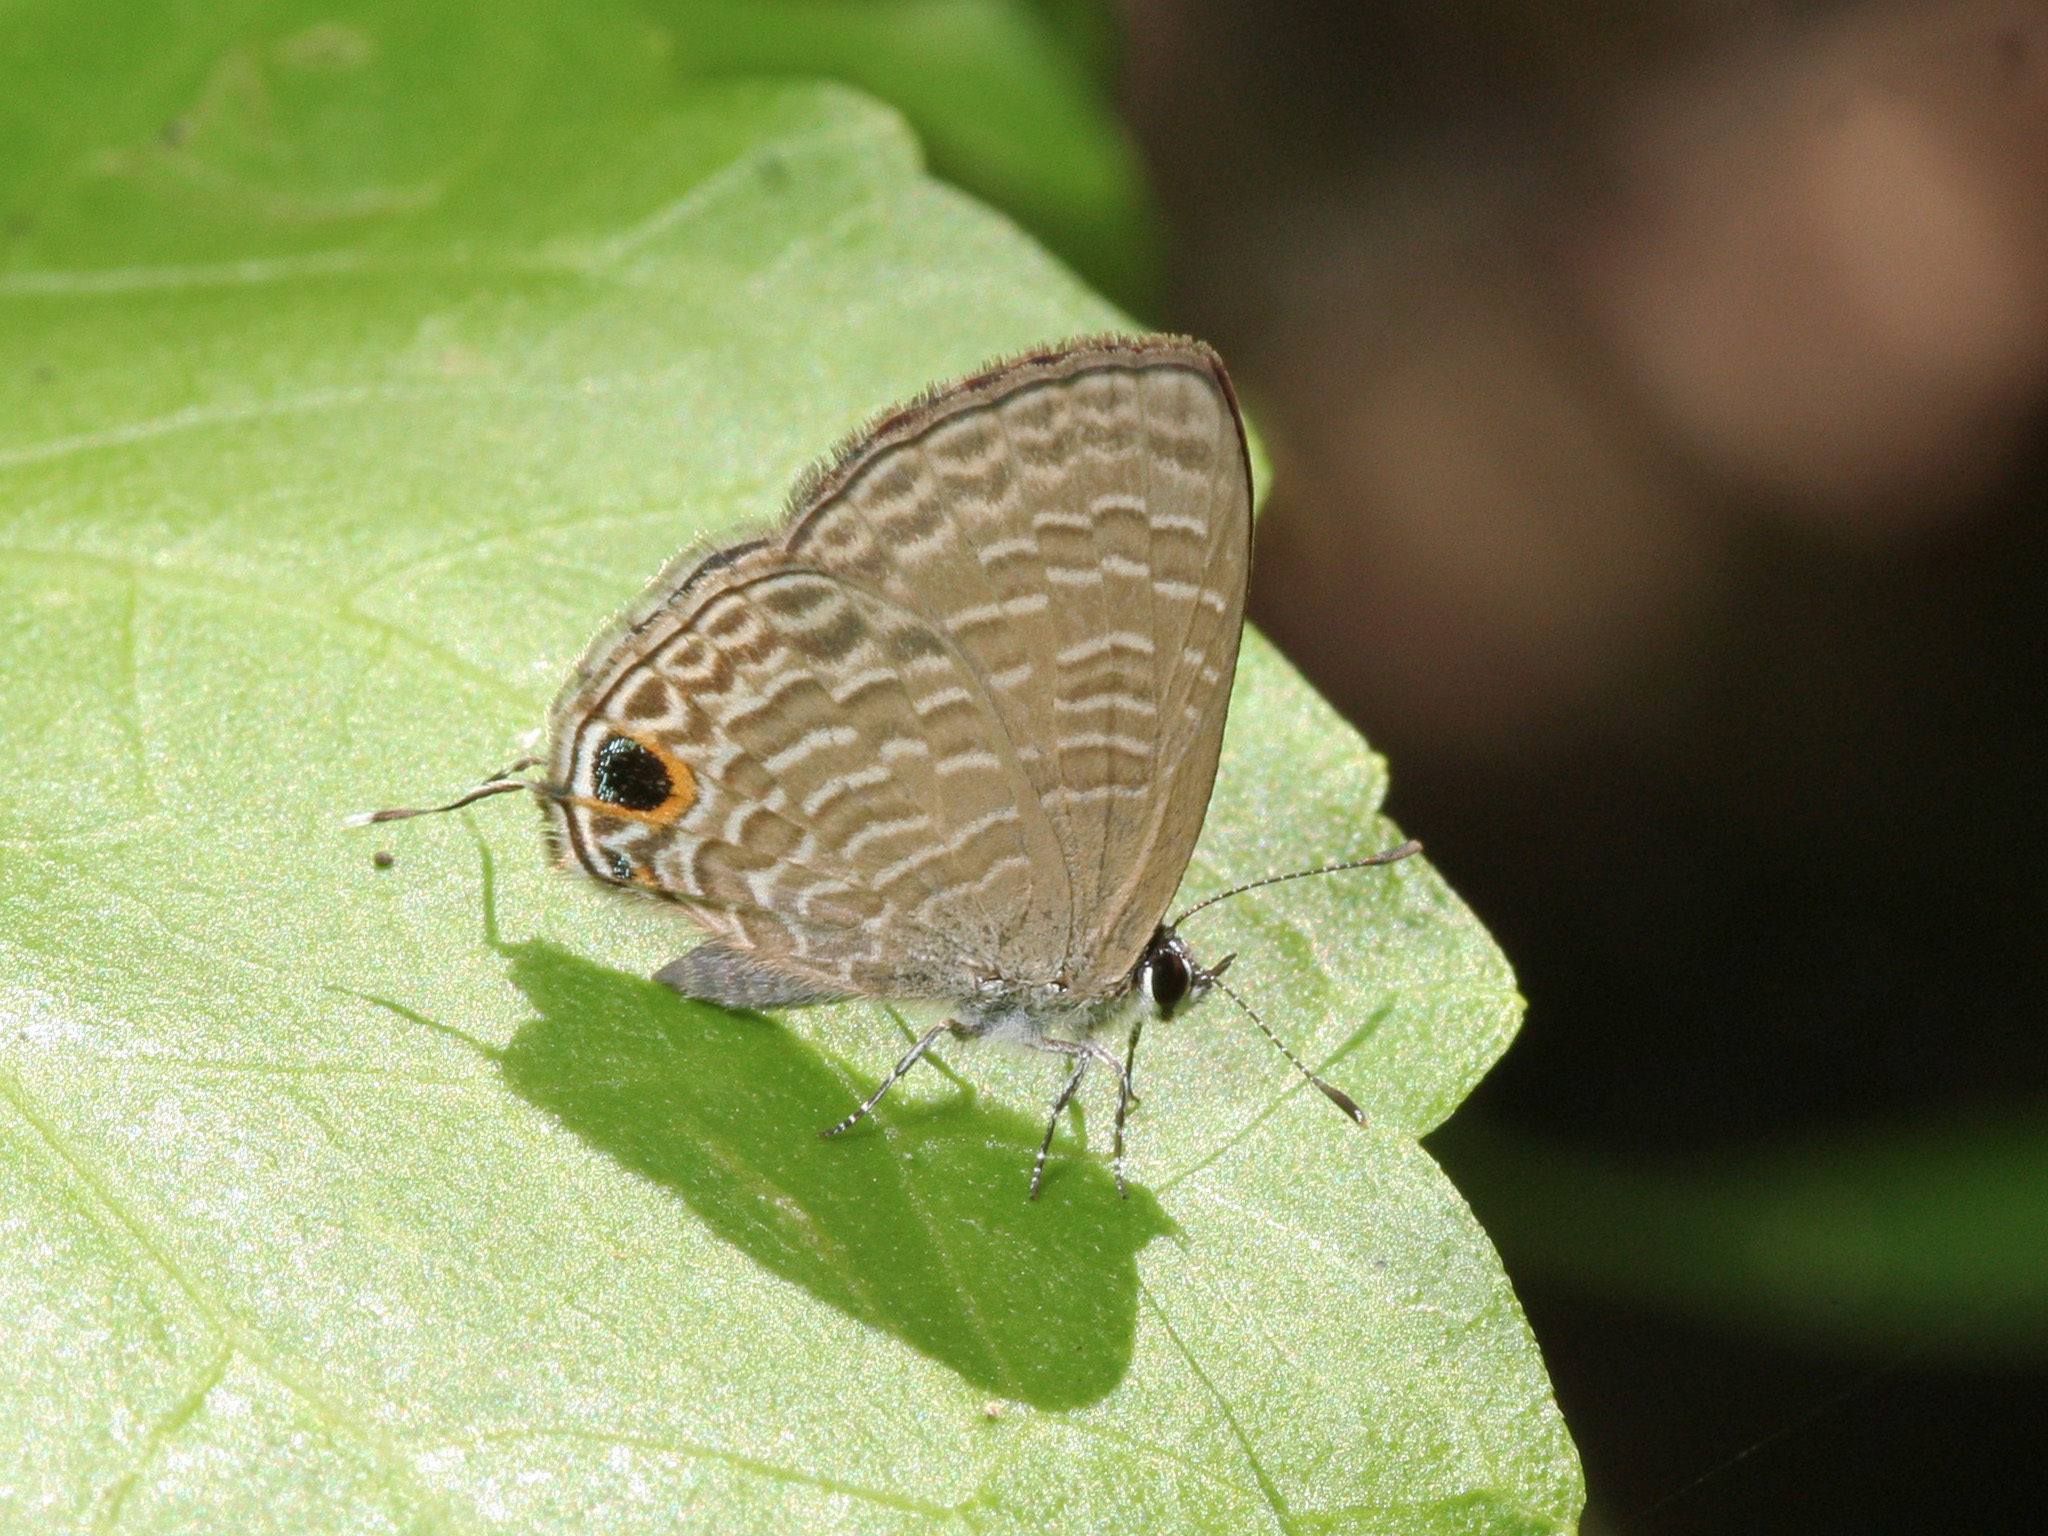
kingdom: Animalia
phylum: Arthropoda
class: Insecta
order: Lepidoptera
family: Lycaenidae
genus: Ionolyce
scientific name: Ionolyce helicon
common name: Pointed line blue
